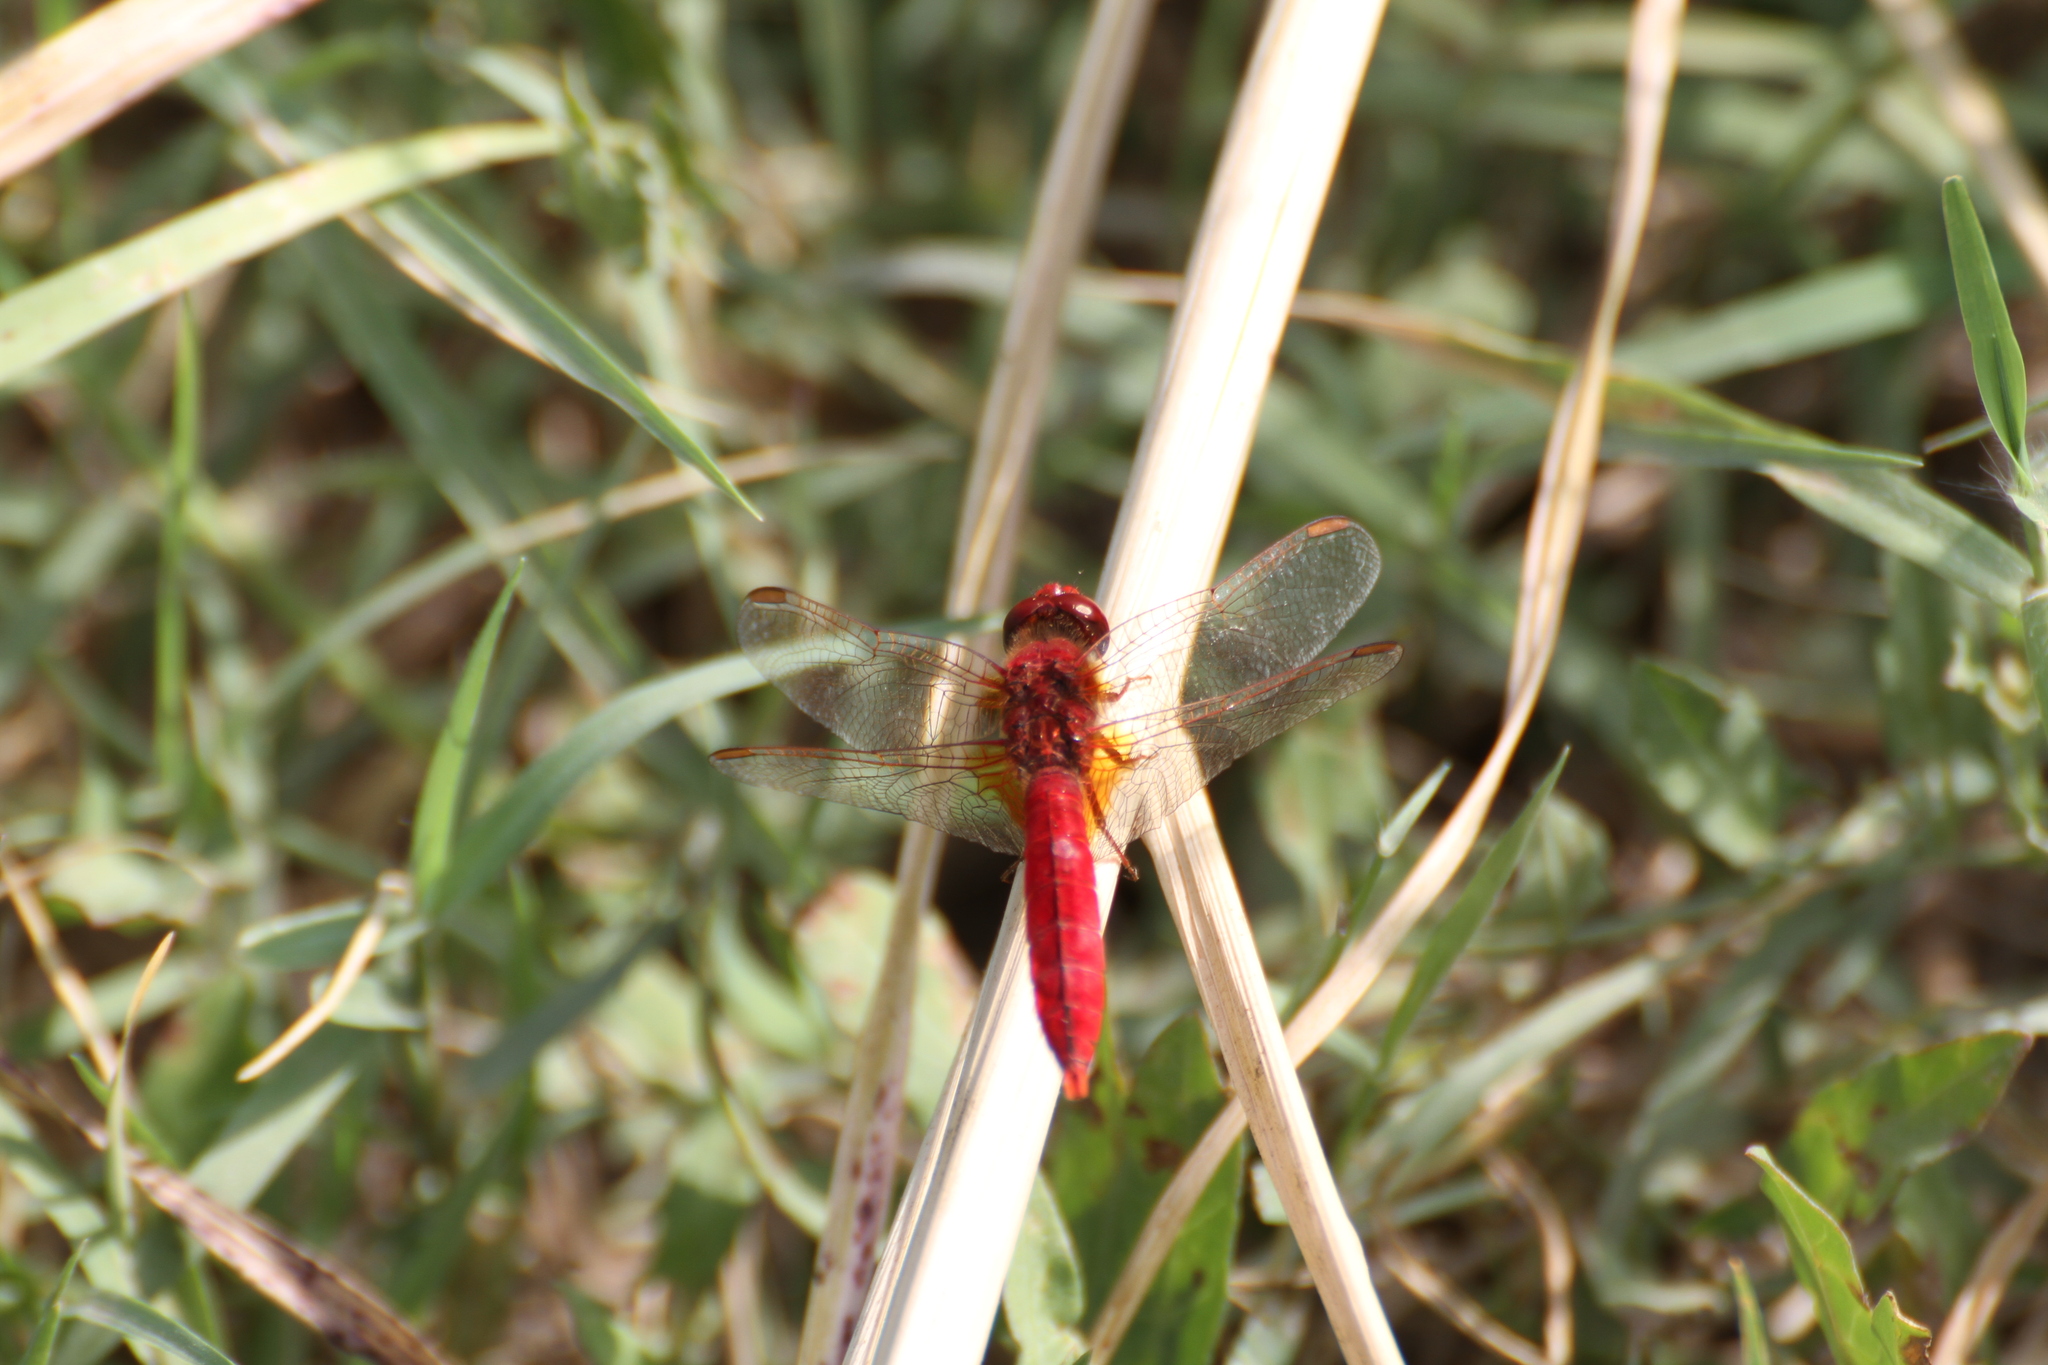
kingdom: Animalia
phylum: Arthropoda
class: Insecta
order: Odonata
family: Libellulidae
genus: Crocothemis
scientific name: Crocothemis erythraea
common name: Scarlet dragonfly
